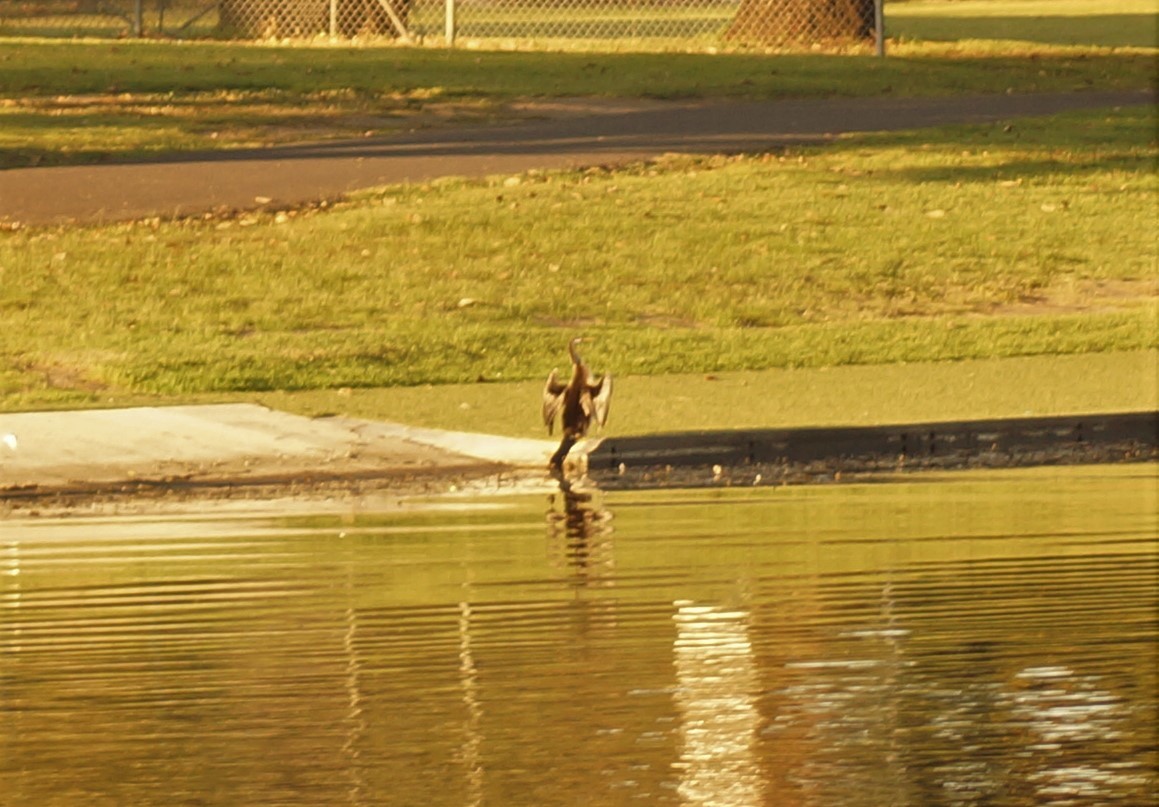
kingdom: Animalia
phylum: Chordata
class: Aves
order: Suliformes
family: Anhingidae
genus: Anhinga
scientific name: Anhinga novaehollandiae
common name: Australasian darter
